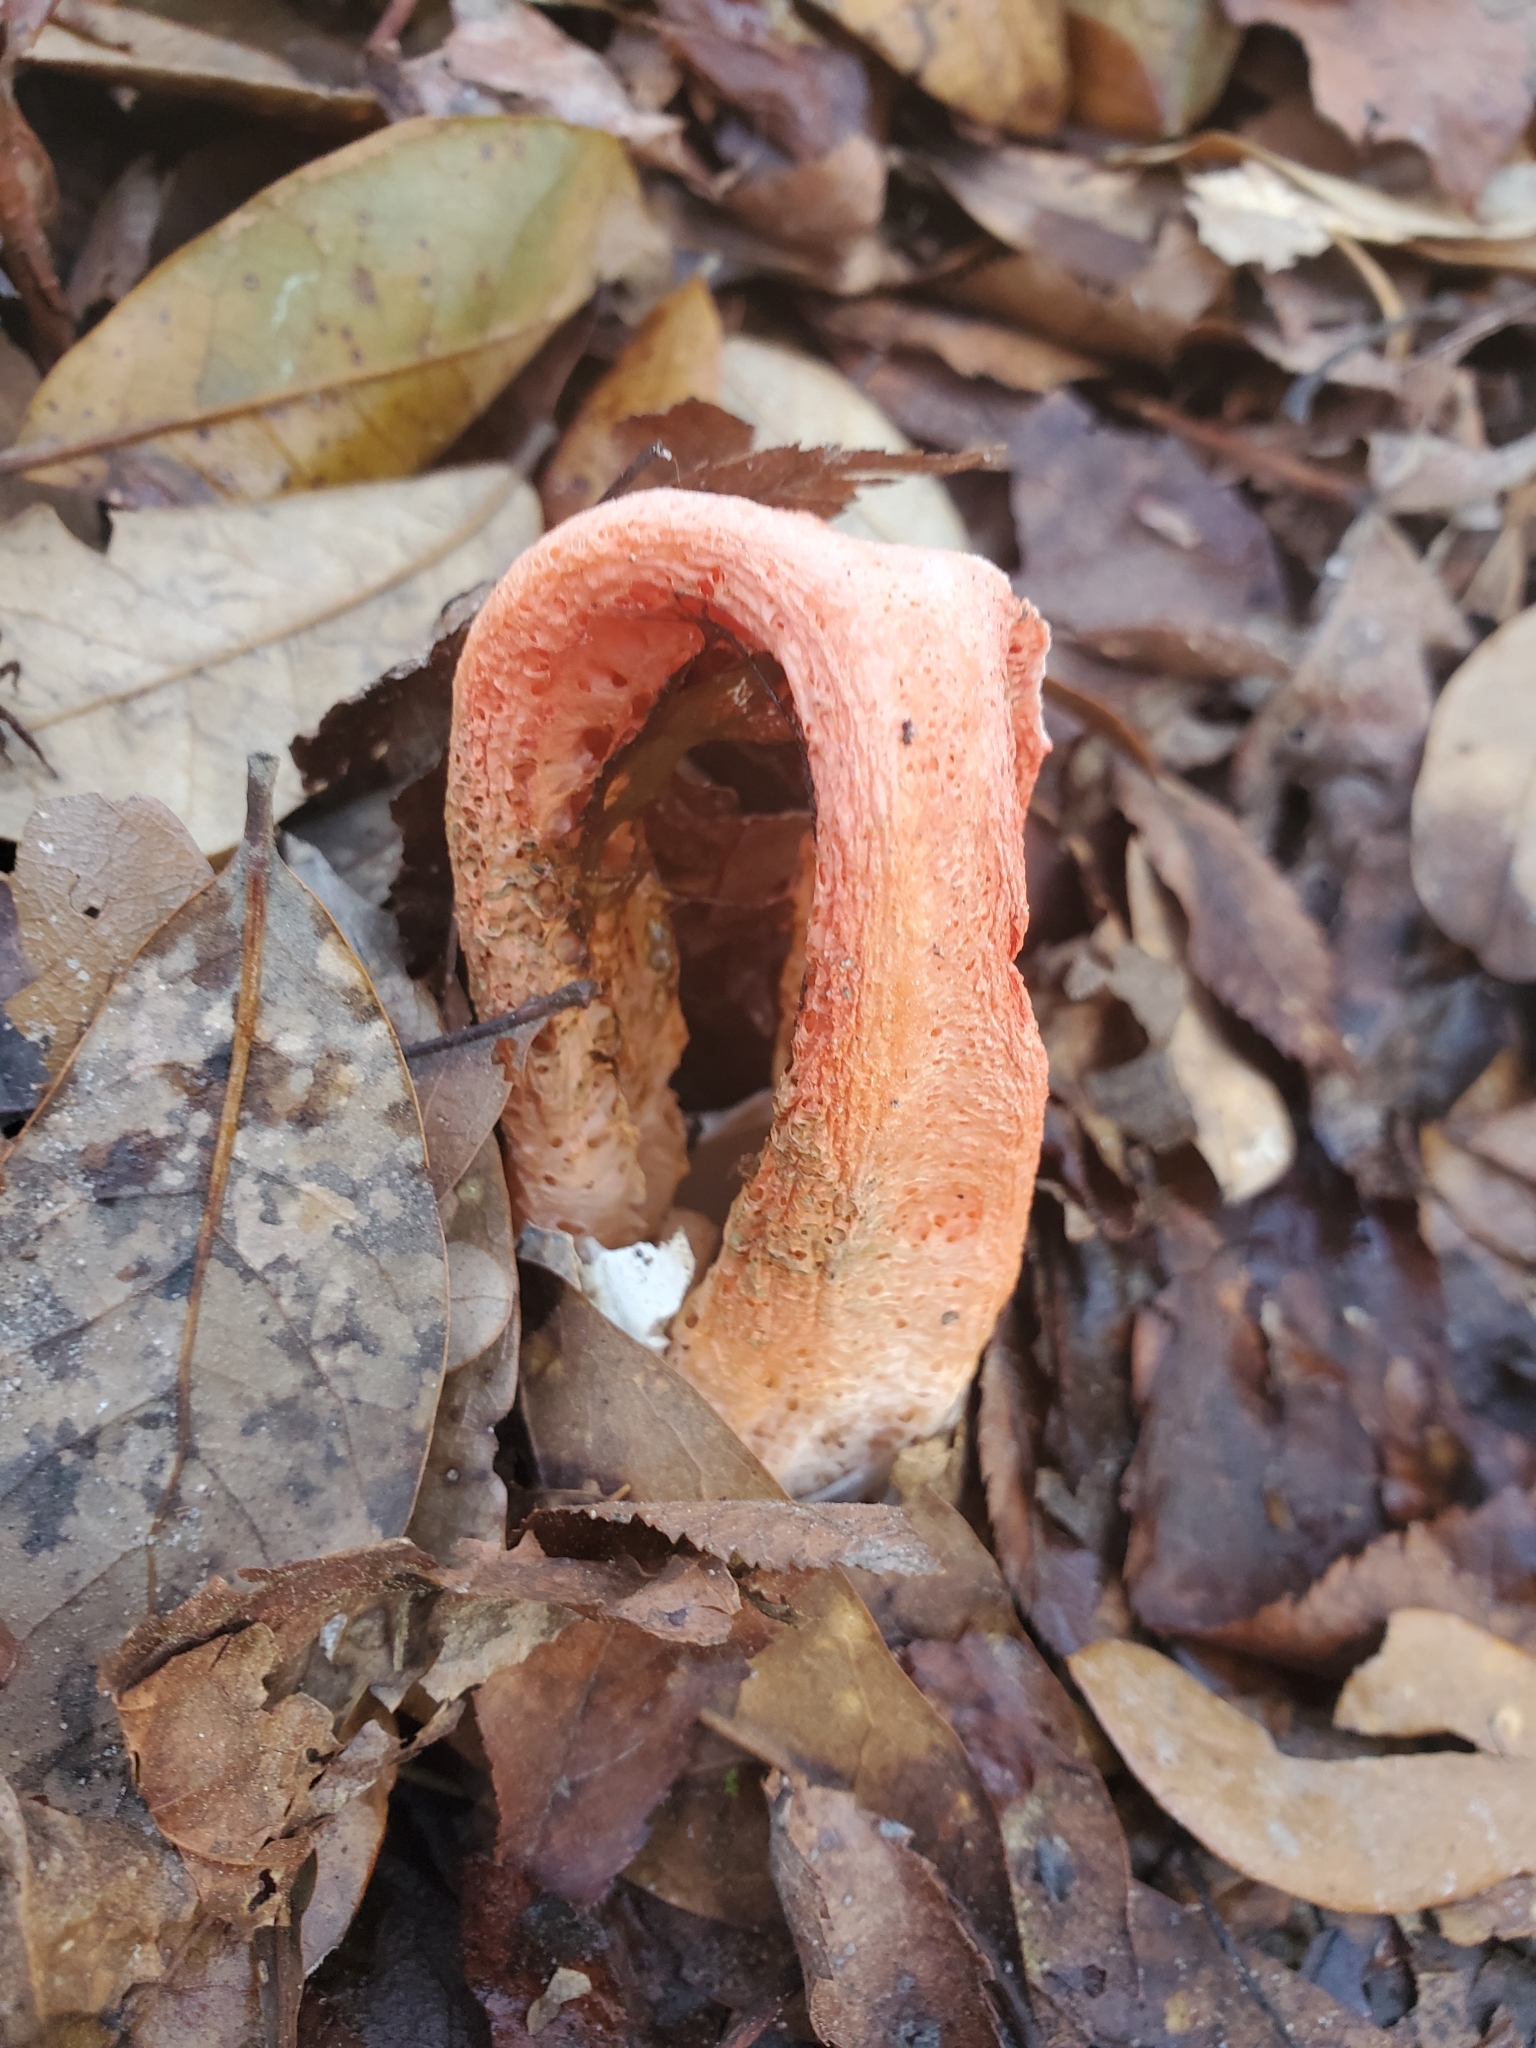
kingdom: Fungi
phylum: Basidiomycota
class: Agaricomycetes
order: Phallales
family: Phallaceae
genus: Clathrus
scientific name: Clathrus columnatus
